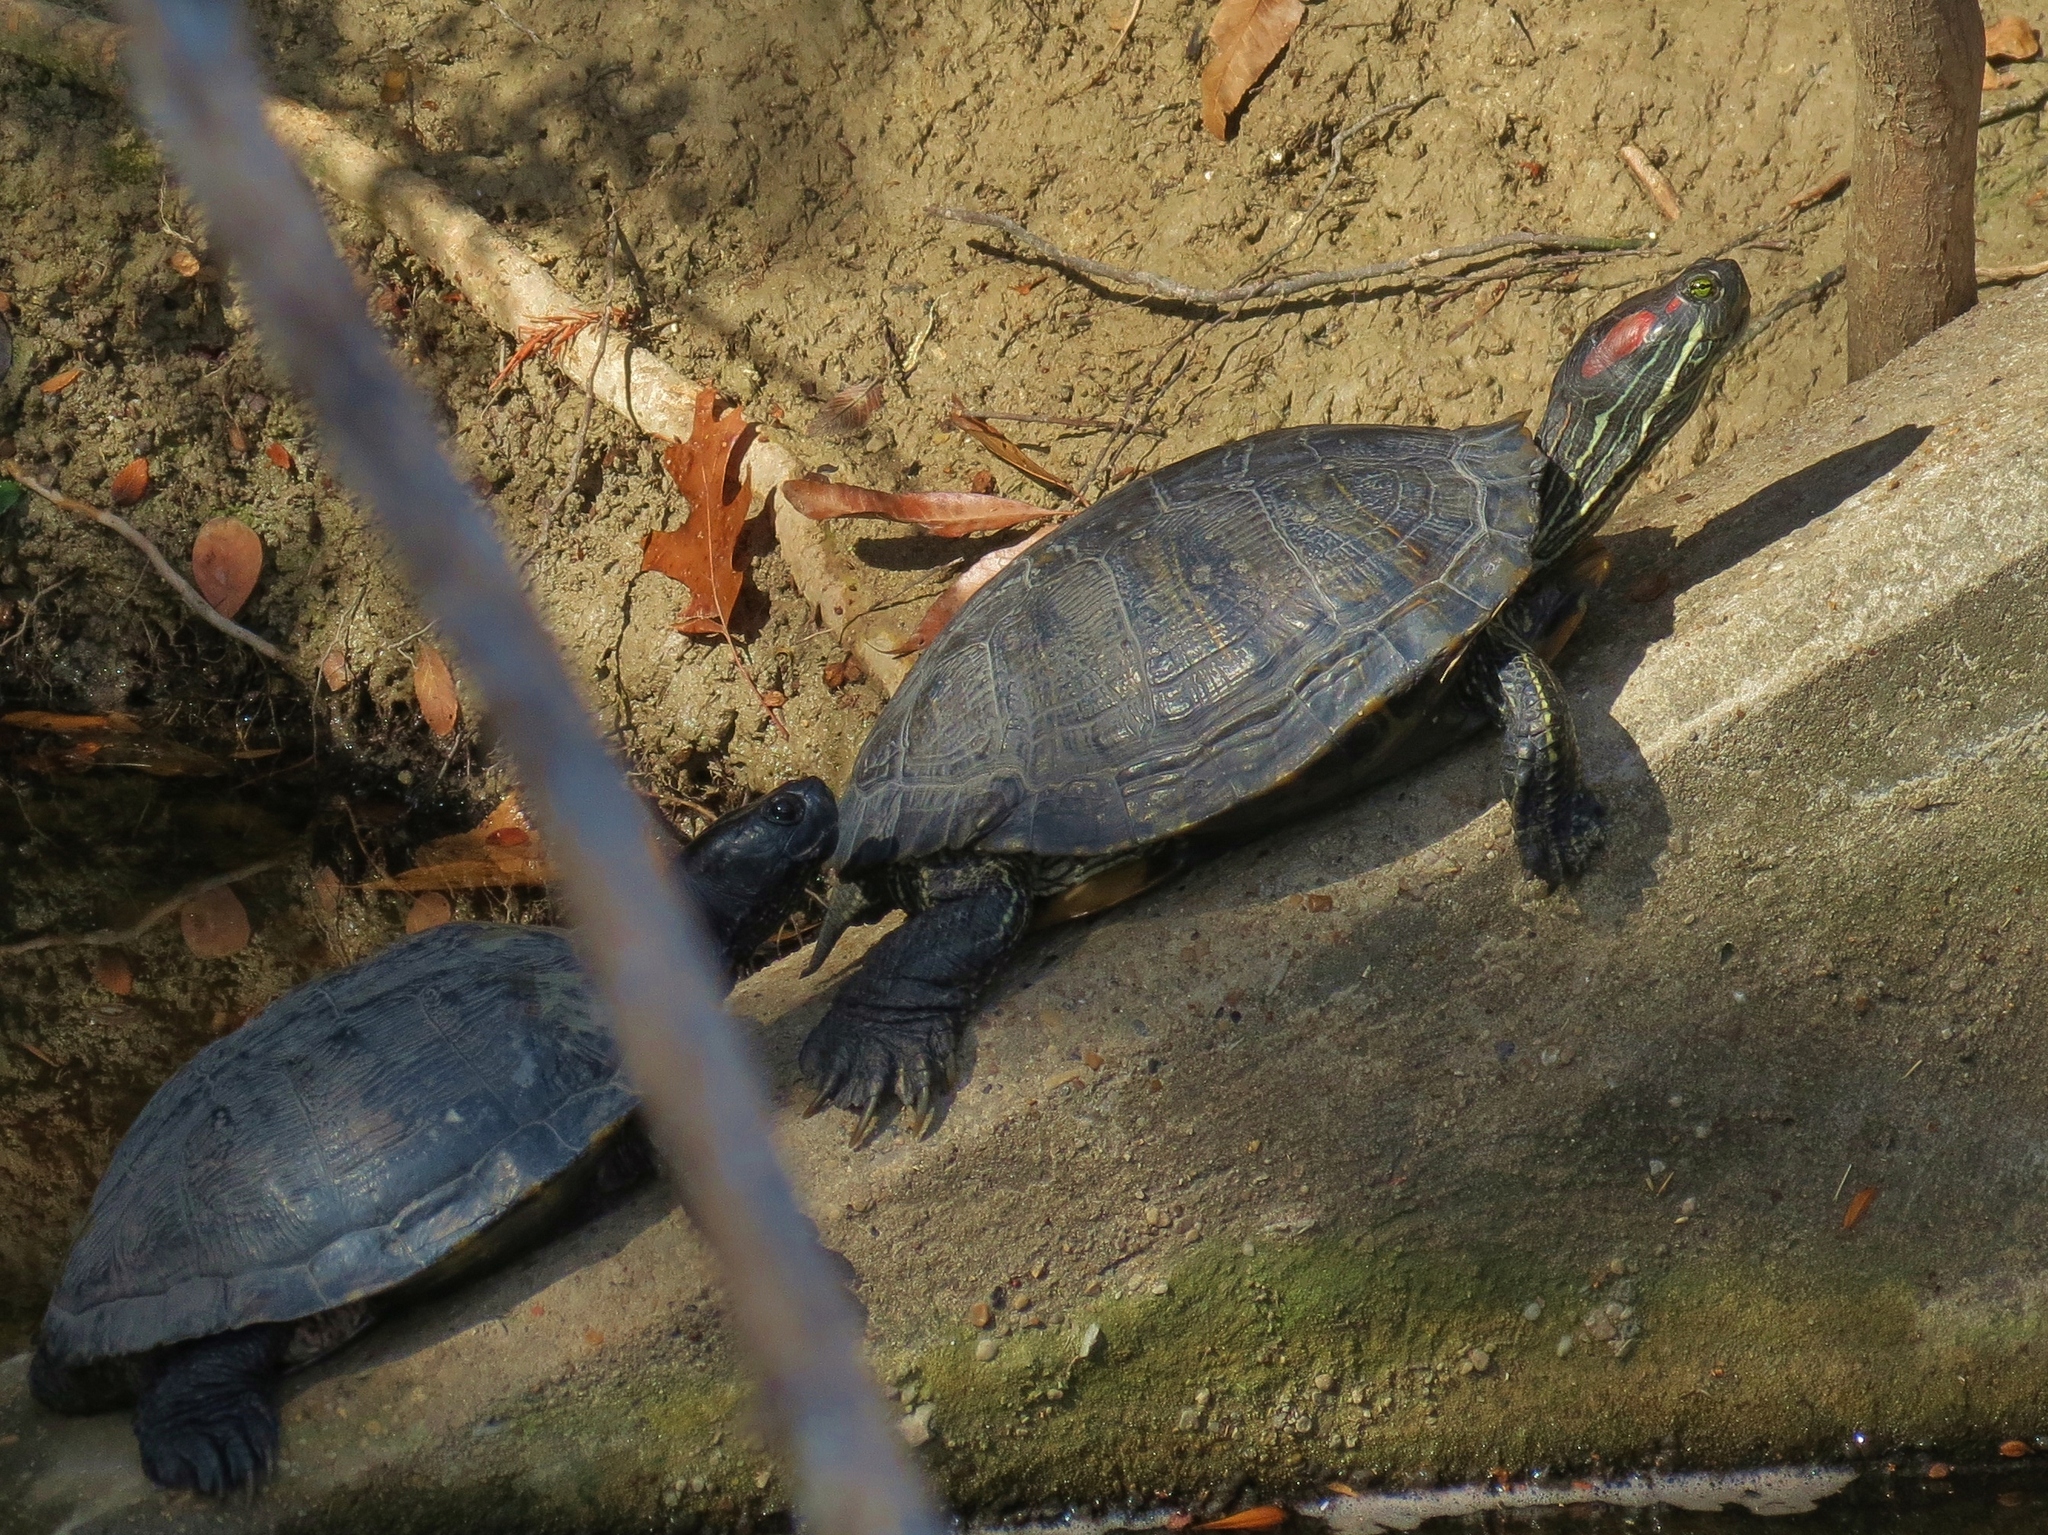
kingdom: Animalia
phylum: Chordata
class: Testudines
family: Emydidae
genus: Trachemys
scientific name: Trachemys scripta
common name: Slider
